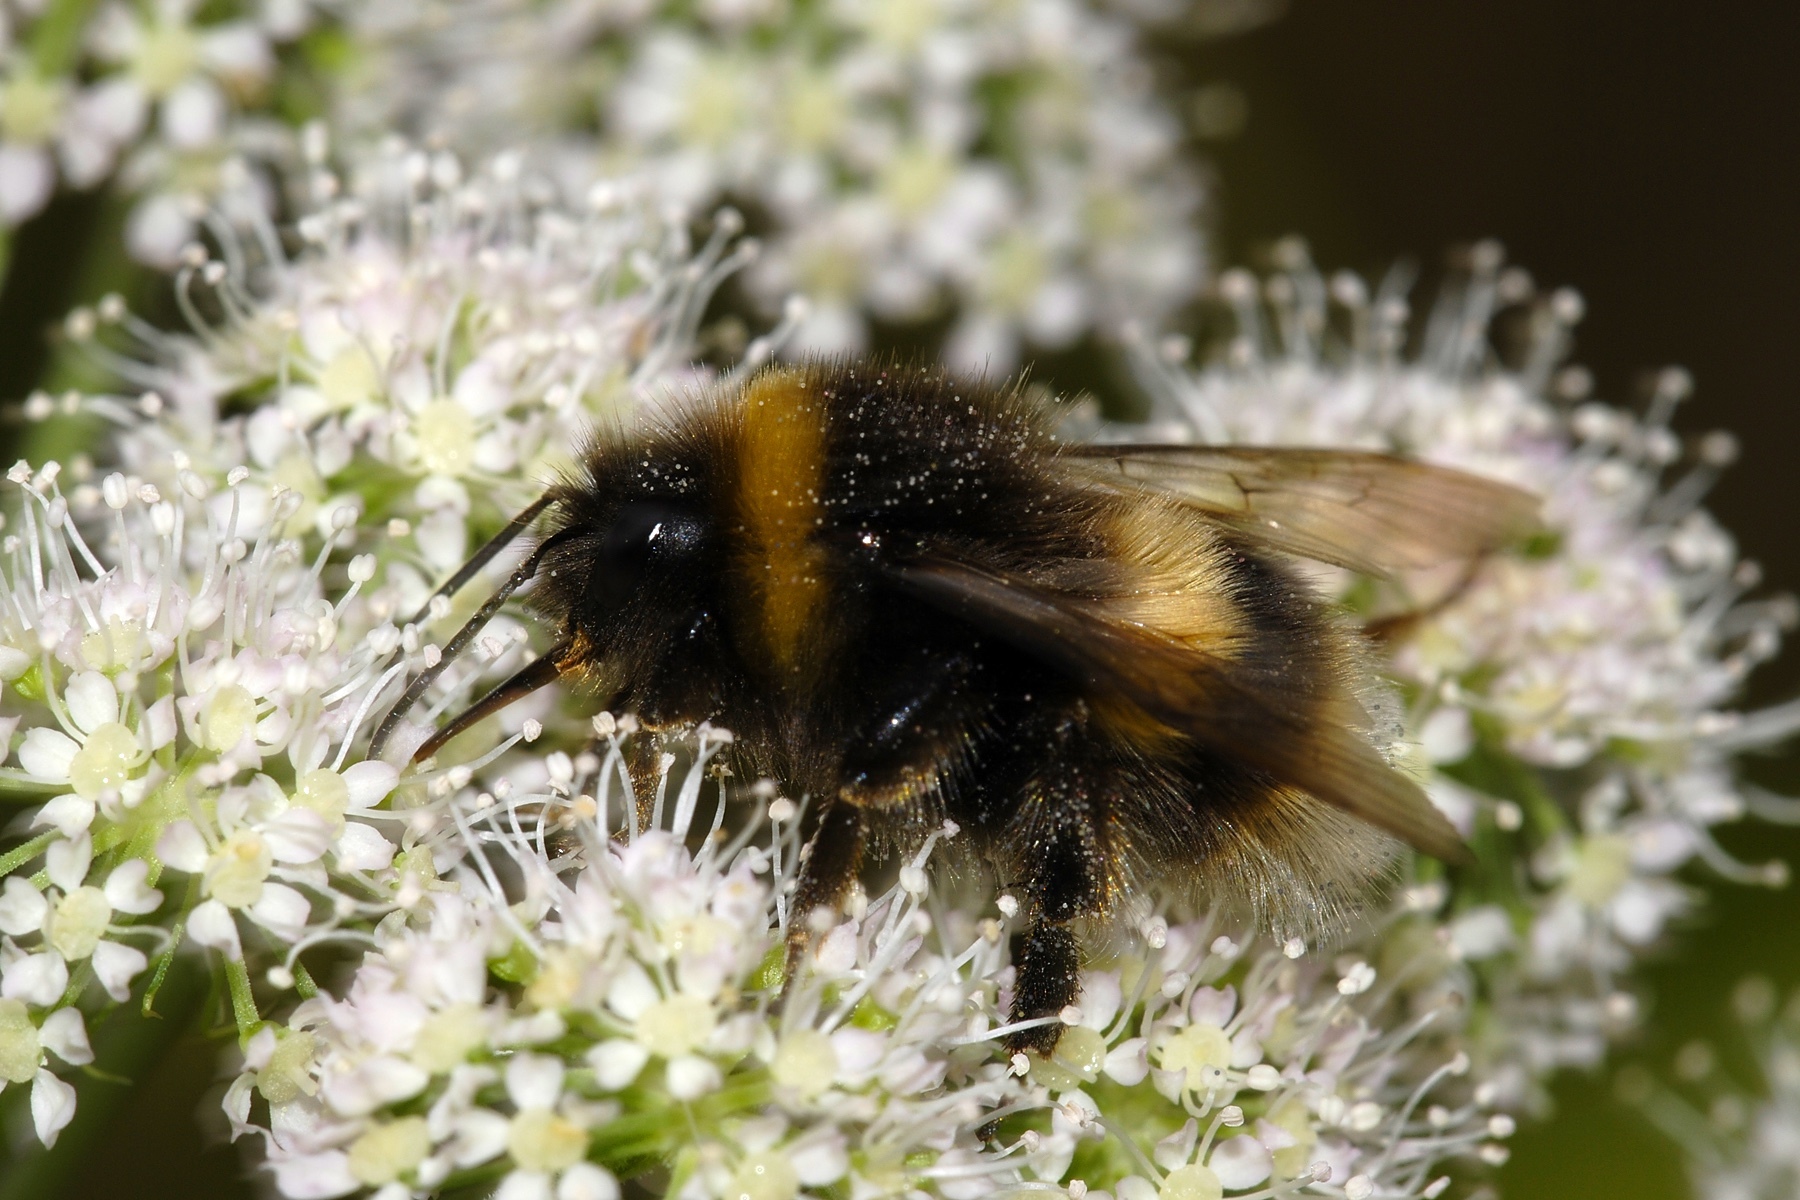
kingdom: Animalia
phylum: Arthropoda
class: Insecta
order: Hymenoptera
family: Apidae
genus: Bombus
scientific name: Bombus terrestris
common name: Buff-tailed bumblebee
